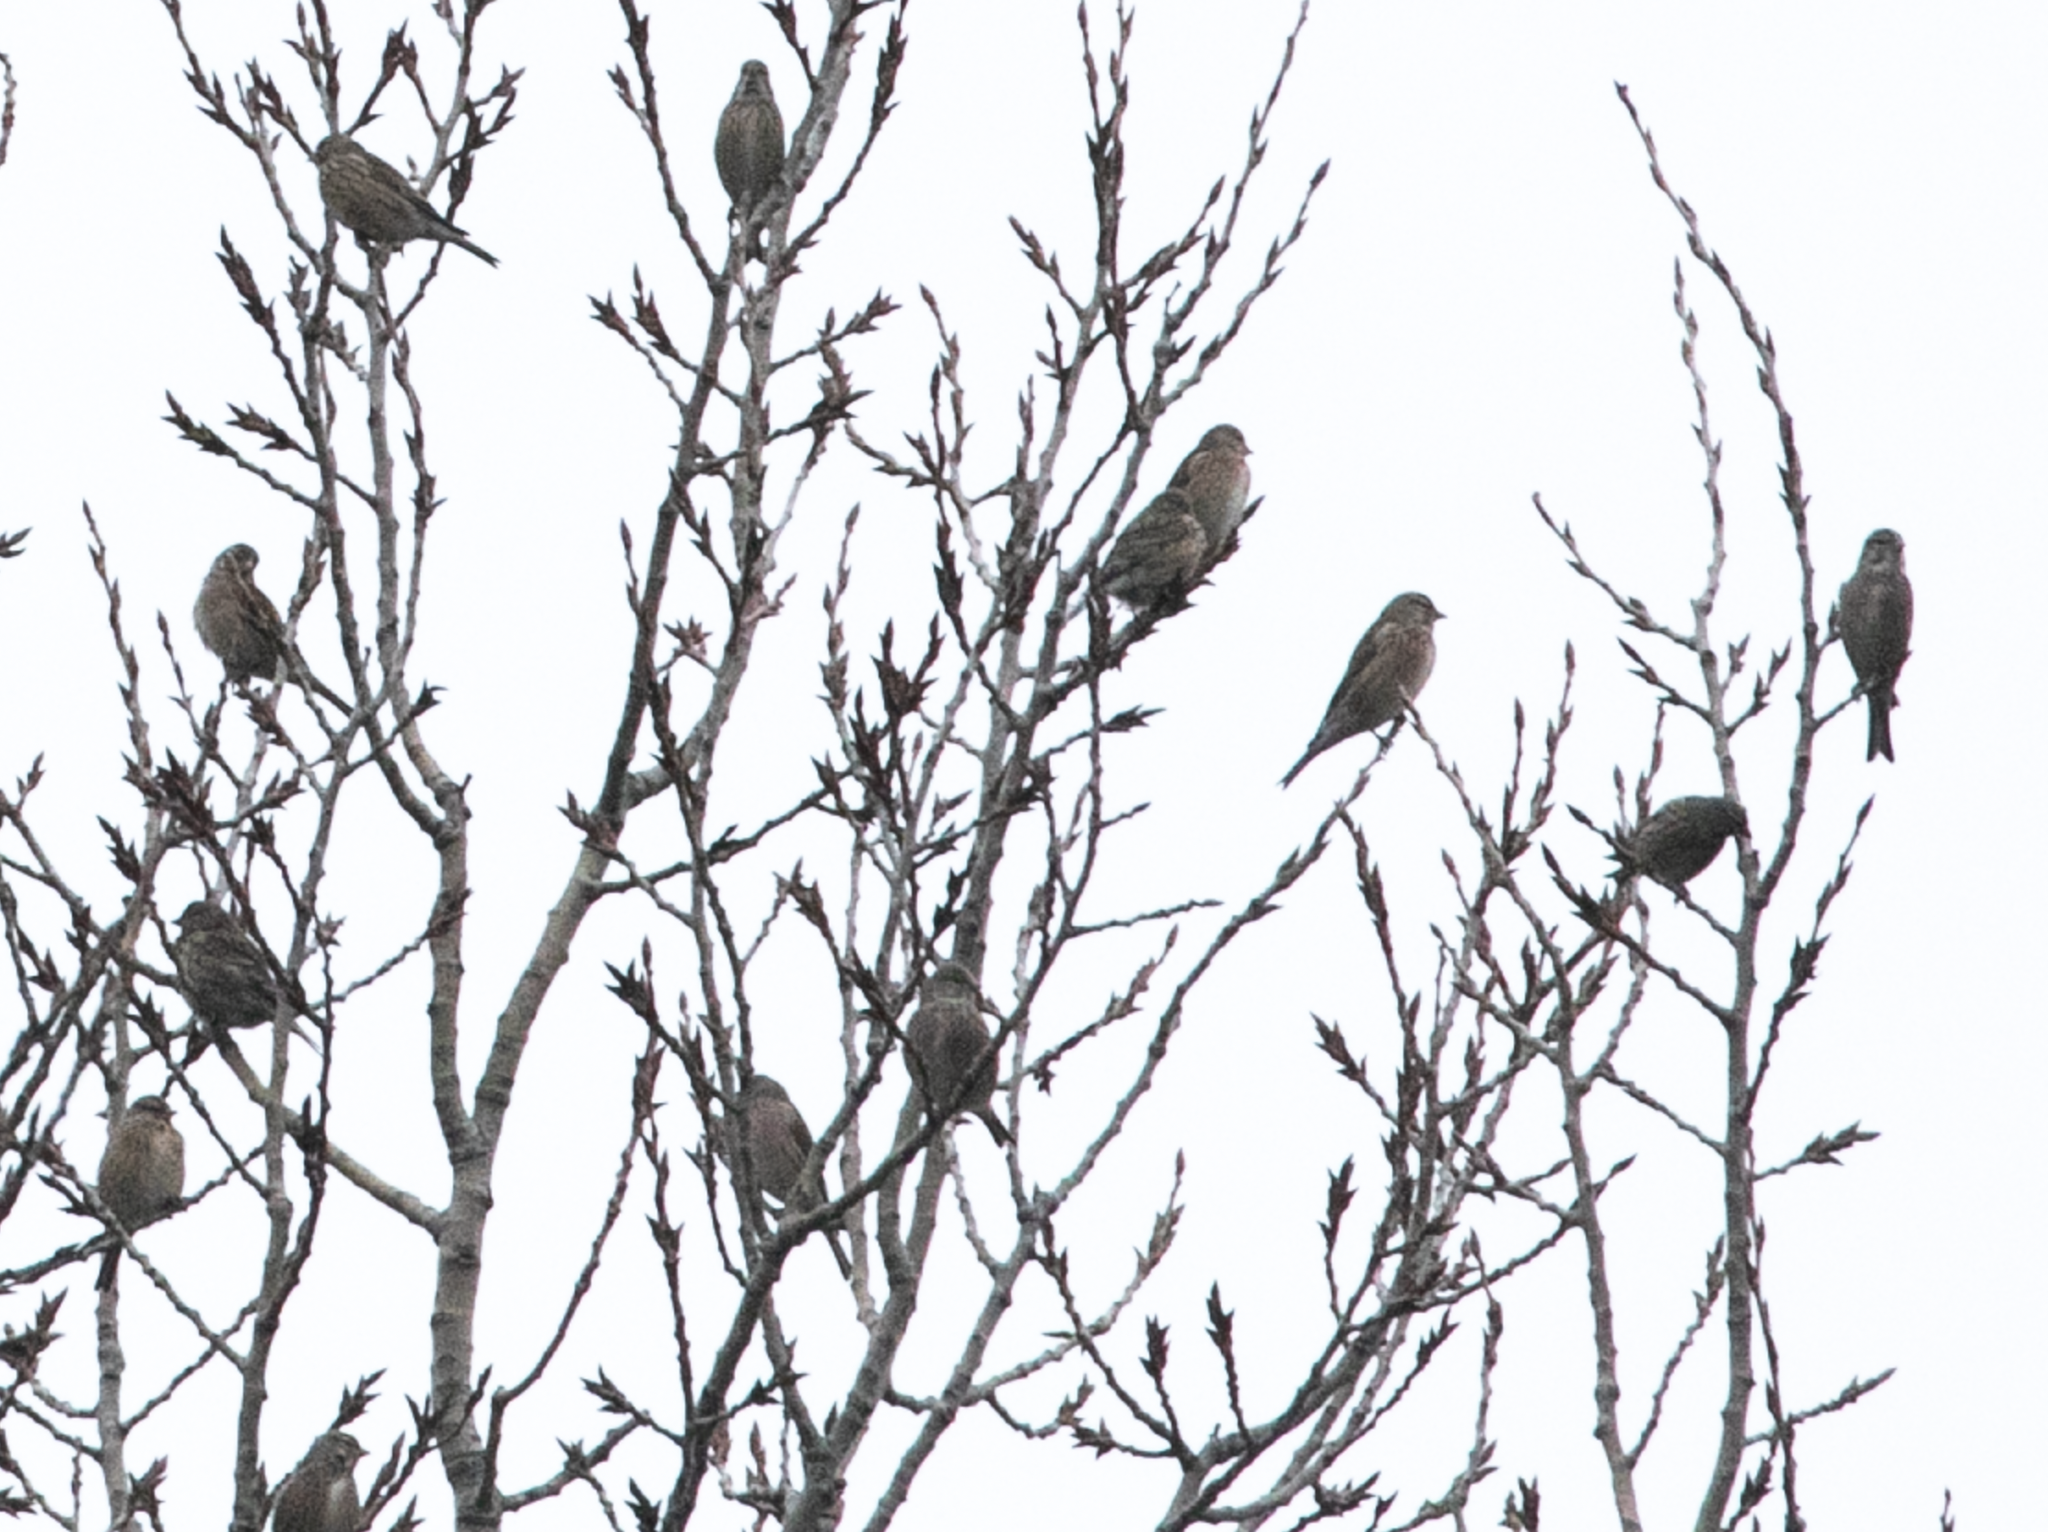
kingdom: Animalia
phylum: Chordata
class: Aves
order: Passeriformes
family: Fringillidae
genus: Linaria
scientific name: Linaria cannabina
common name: Common linnet
